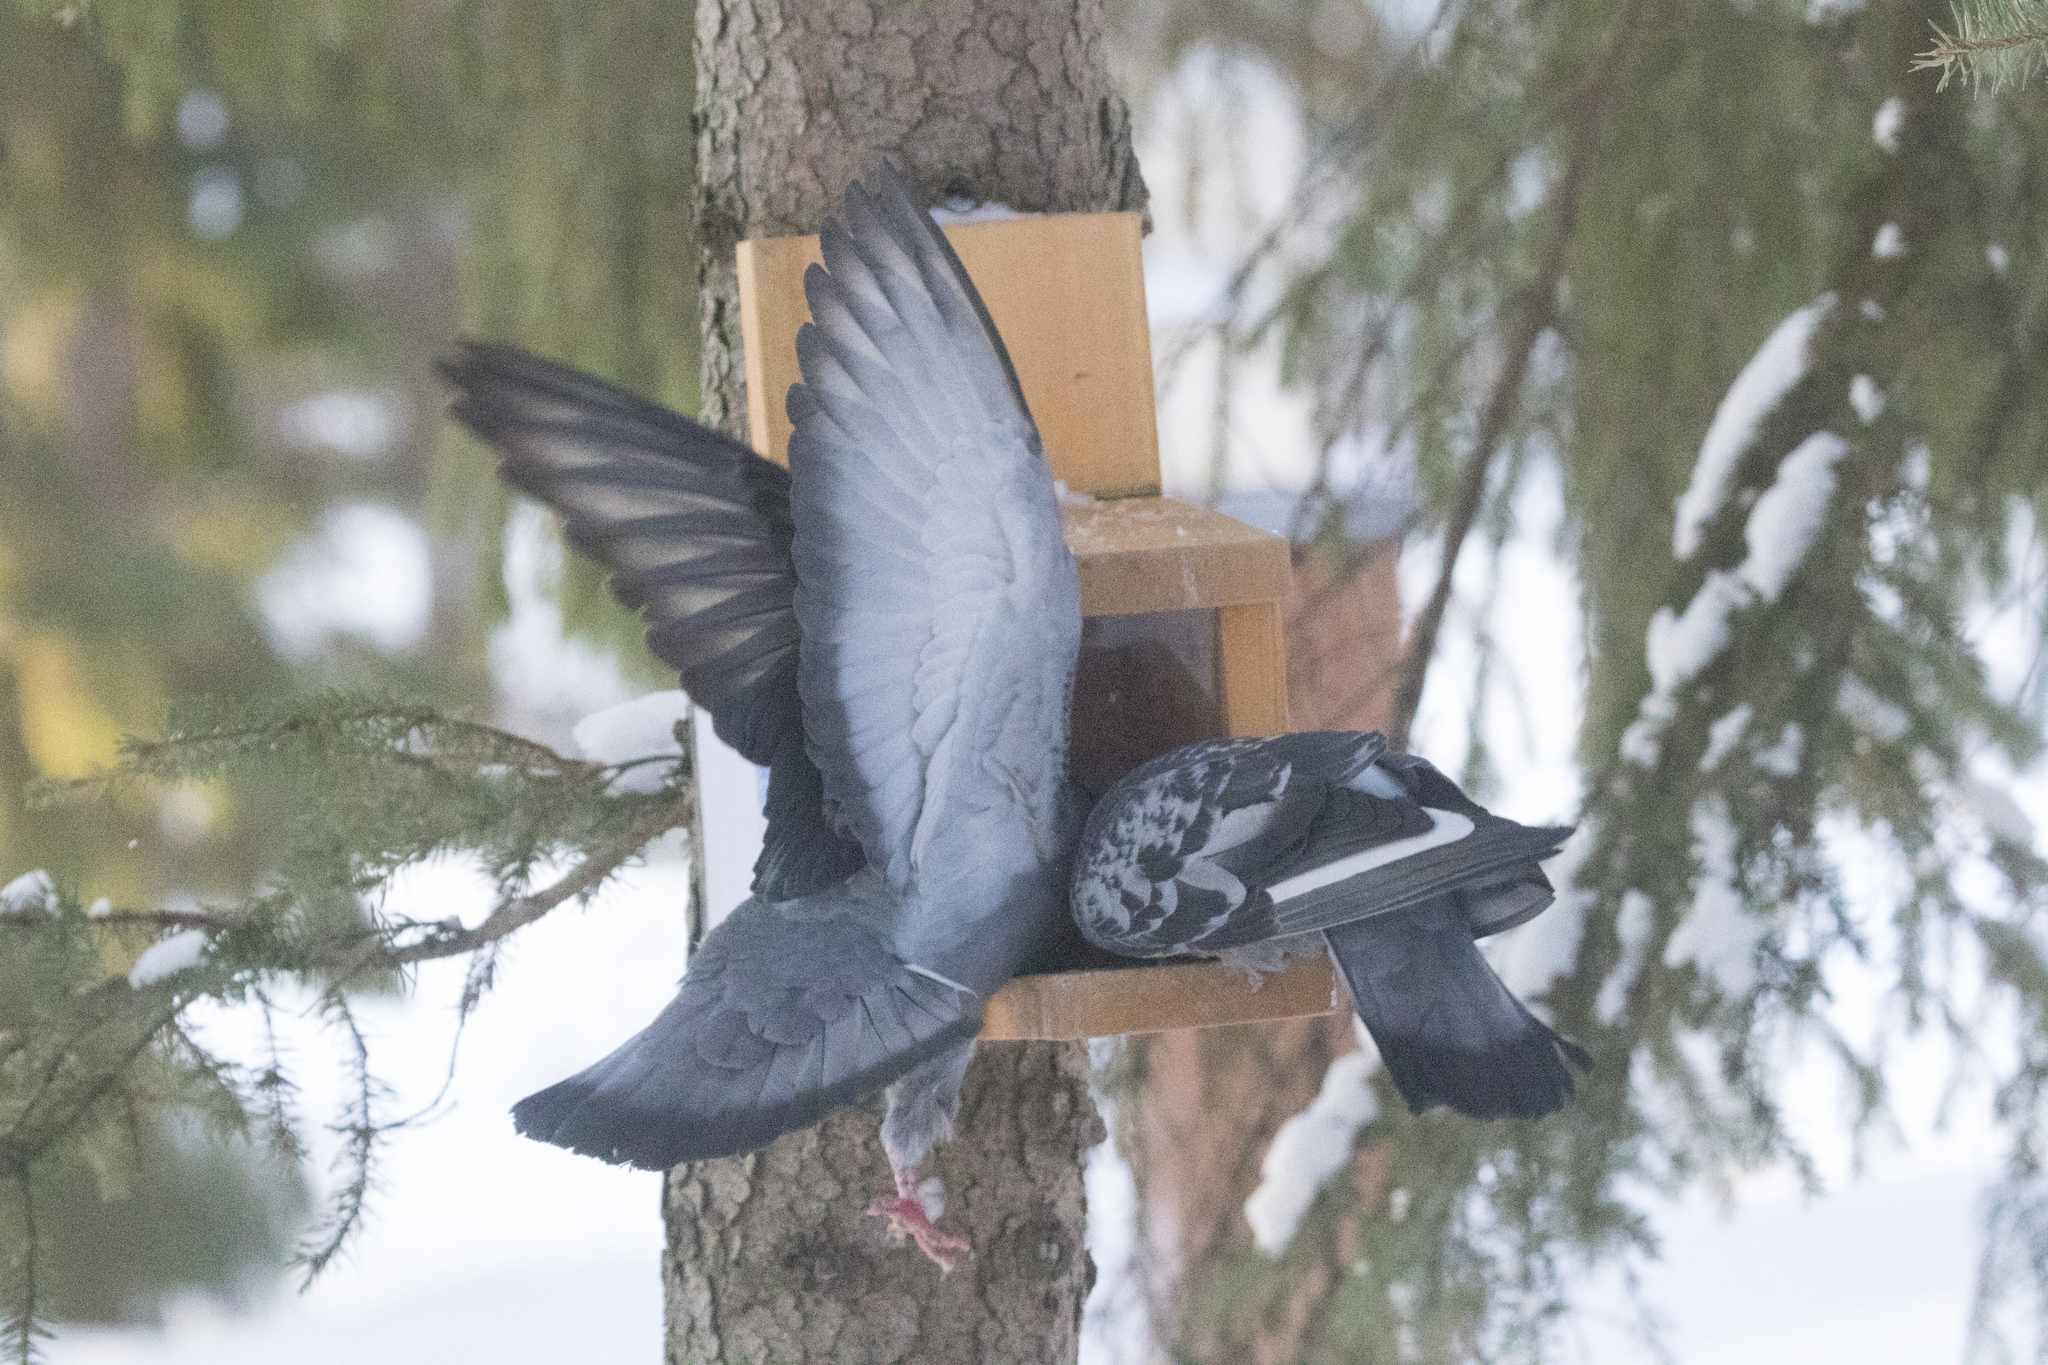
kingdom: Animalia
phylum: Chordata
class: Aves
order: Columbiformes
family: Columbidae
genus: Columba
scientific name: Columba livia
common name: Rock pigeon
